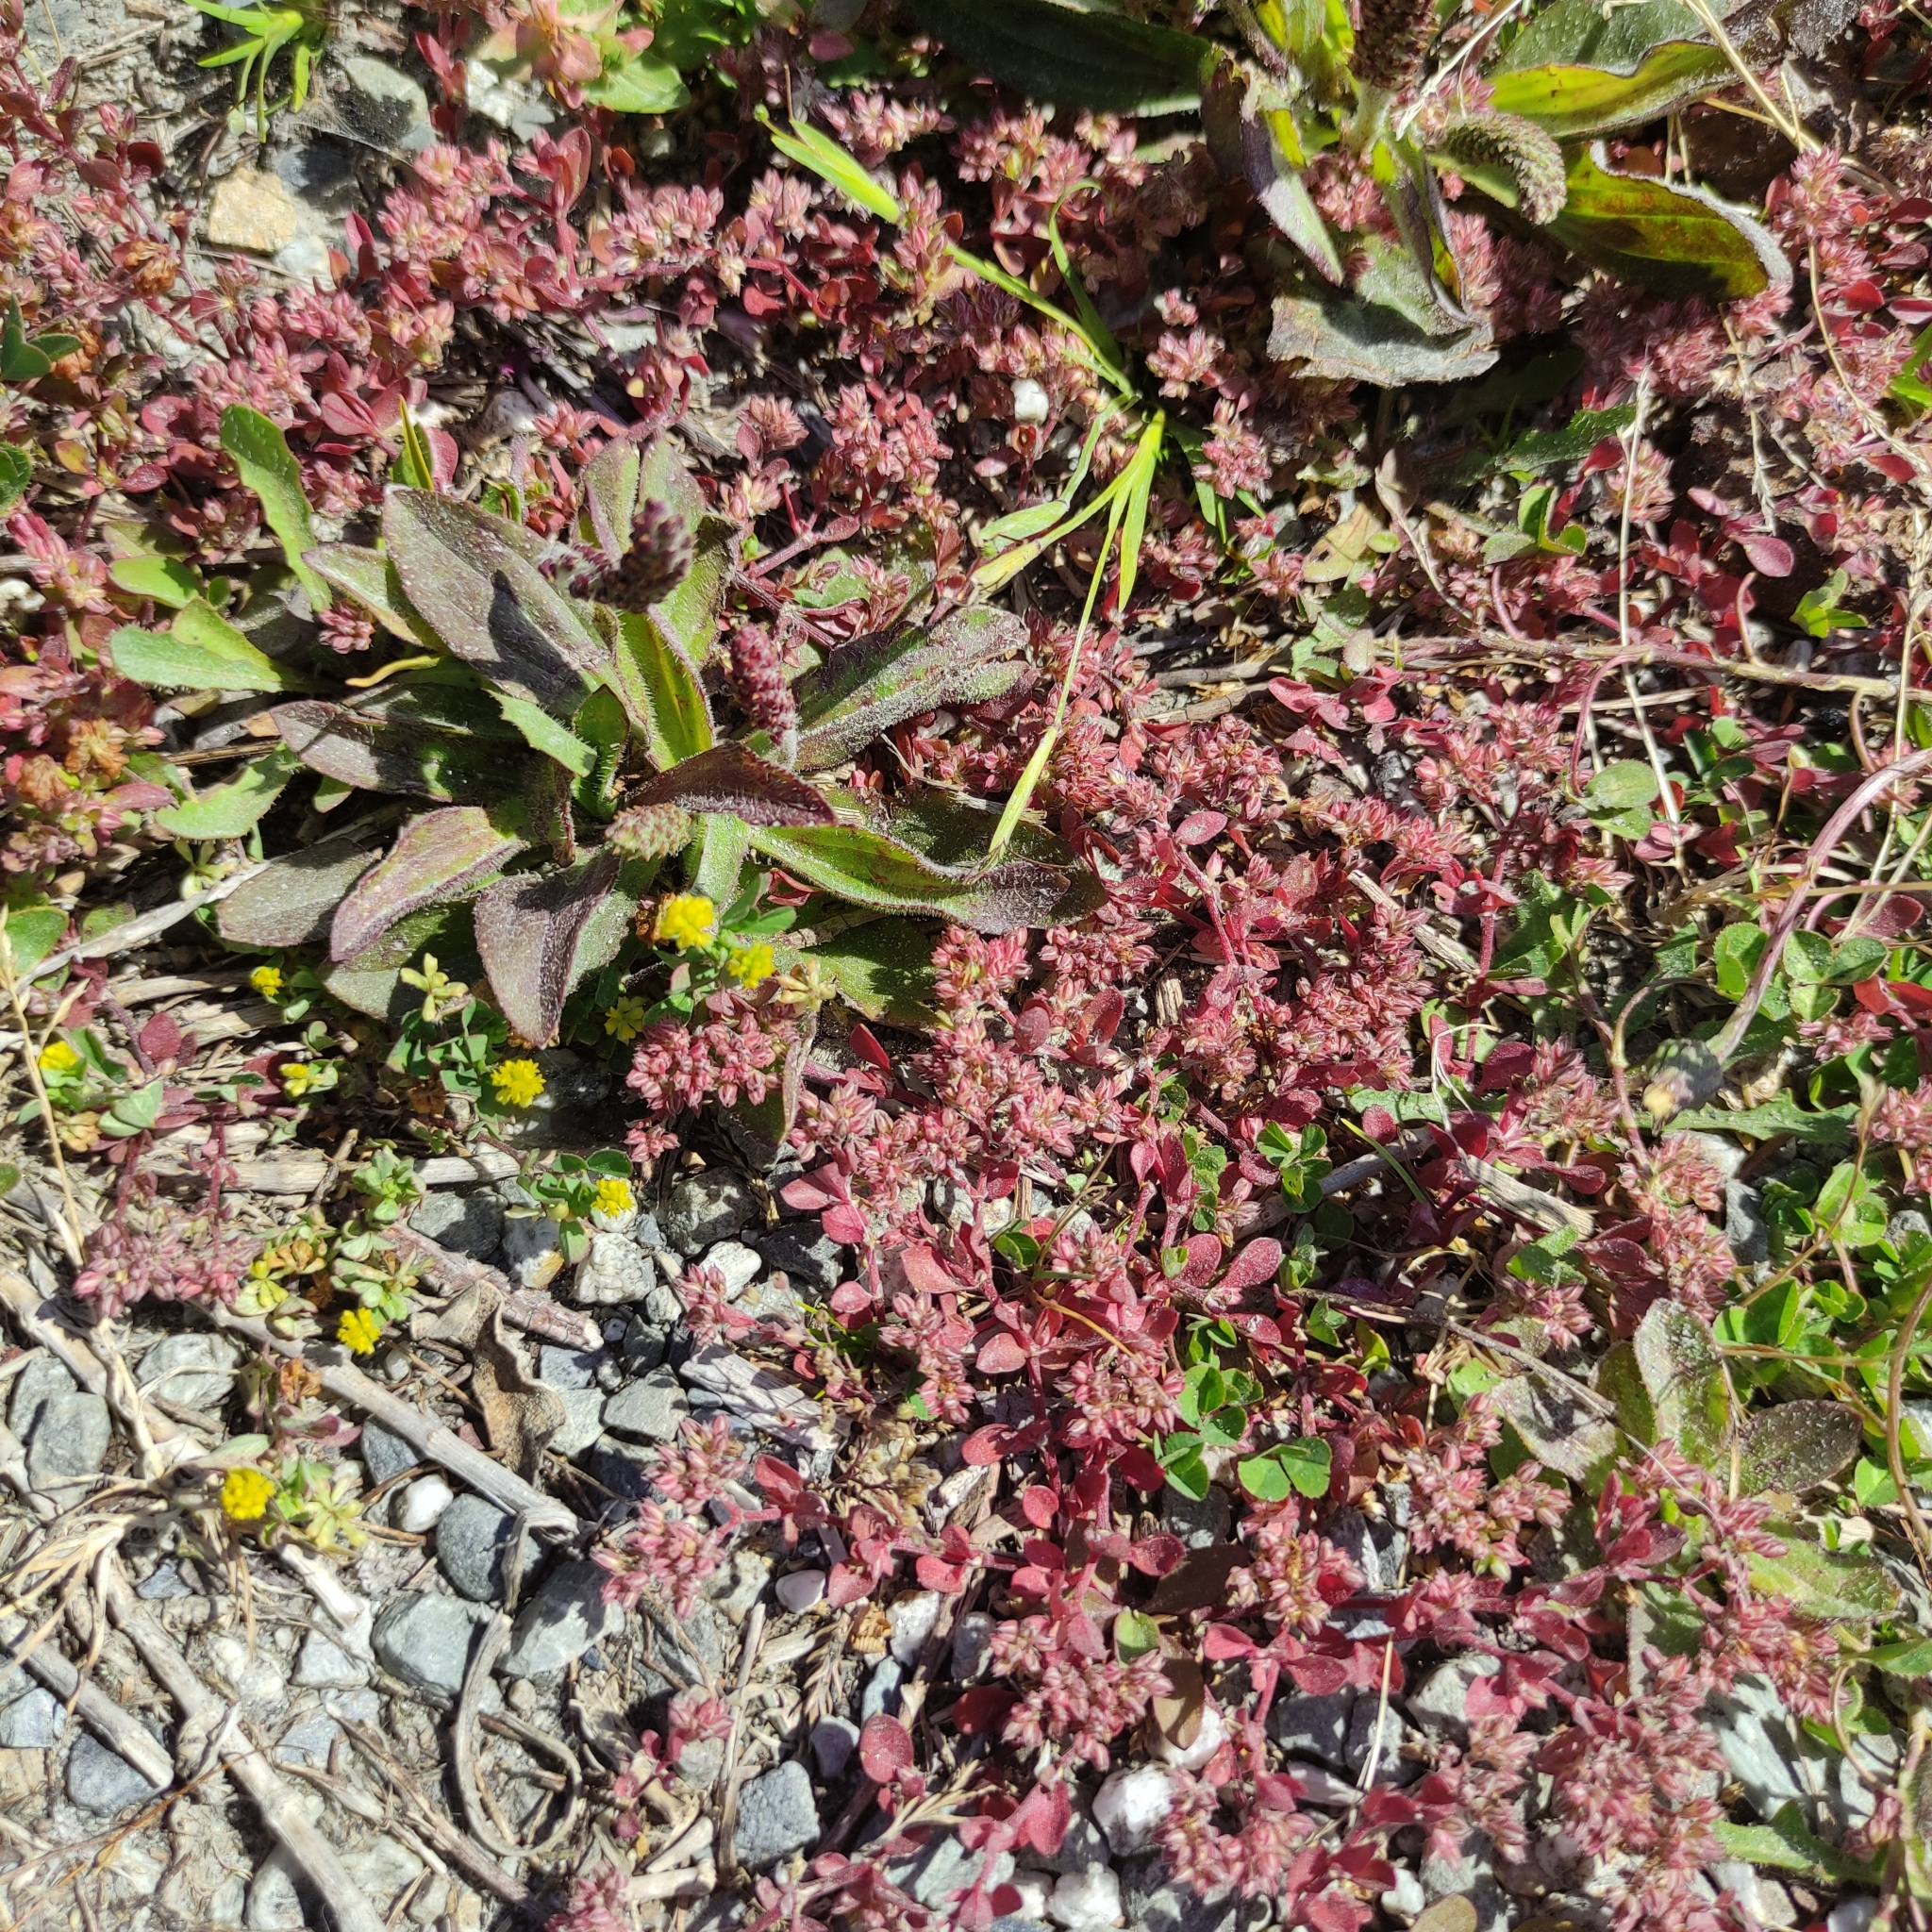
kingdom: Plantae
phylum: Tracheophyta
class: Magnoliopsida
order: Caryophyllales
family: Caryophyllaceae
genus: Polycarpon
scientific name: Polycarpon tetraphyllum
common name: Four-leaved all-seed
